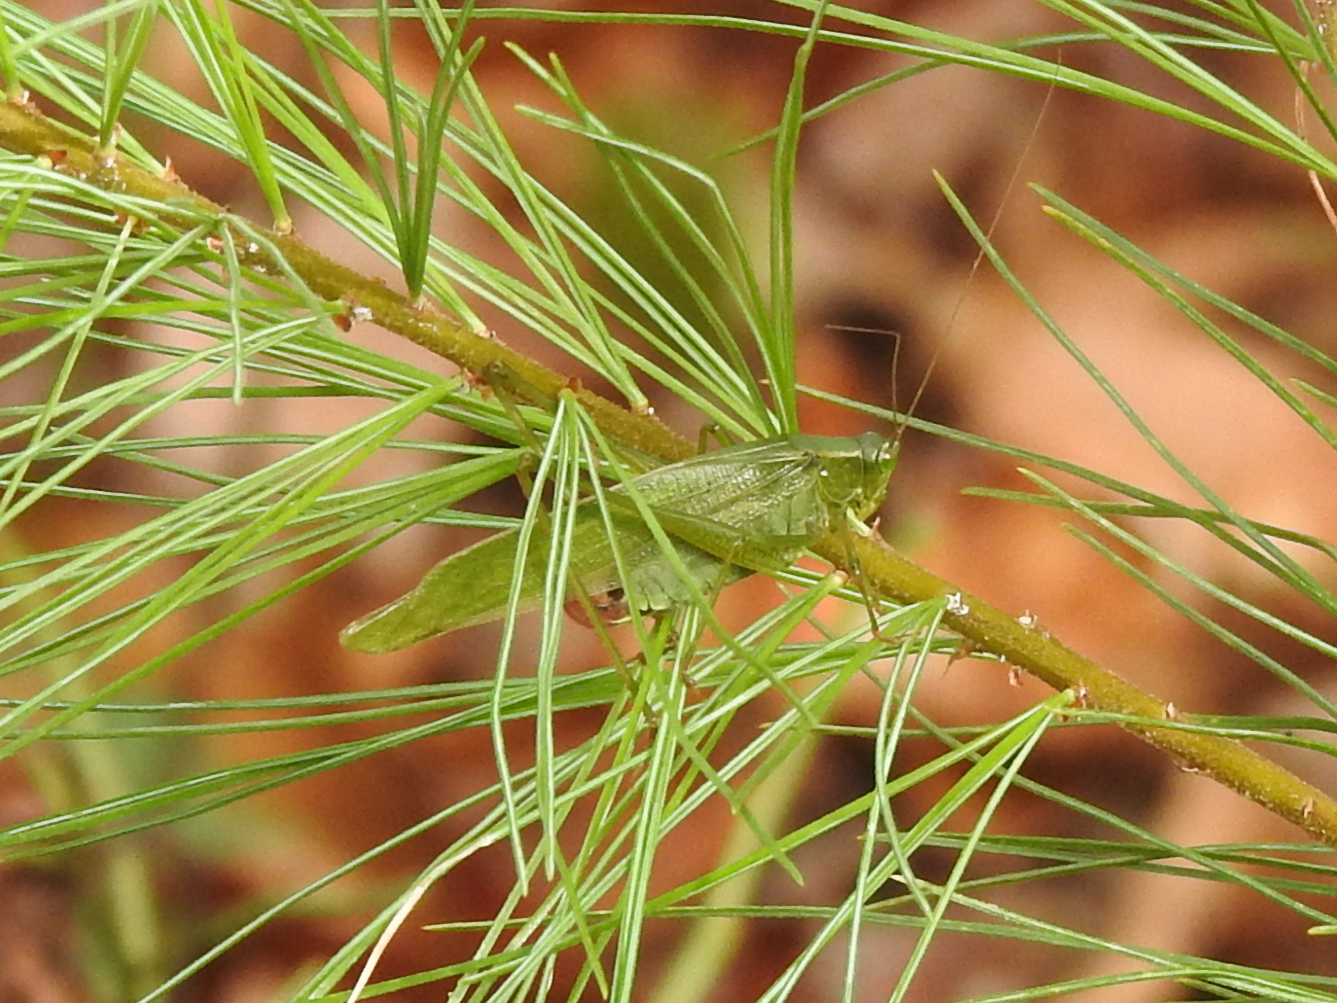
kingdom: Animalia
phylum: Arthropoda
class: Insecta
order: Orthoptera
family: Tettigoniidae
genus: Scudderia
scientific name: Scudderia furcata
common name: Fork-tailed bush katydid
